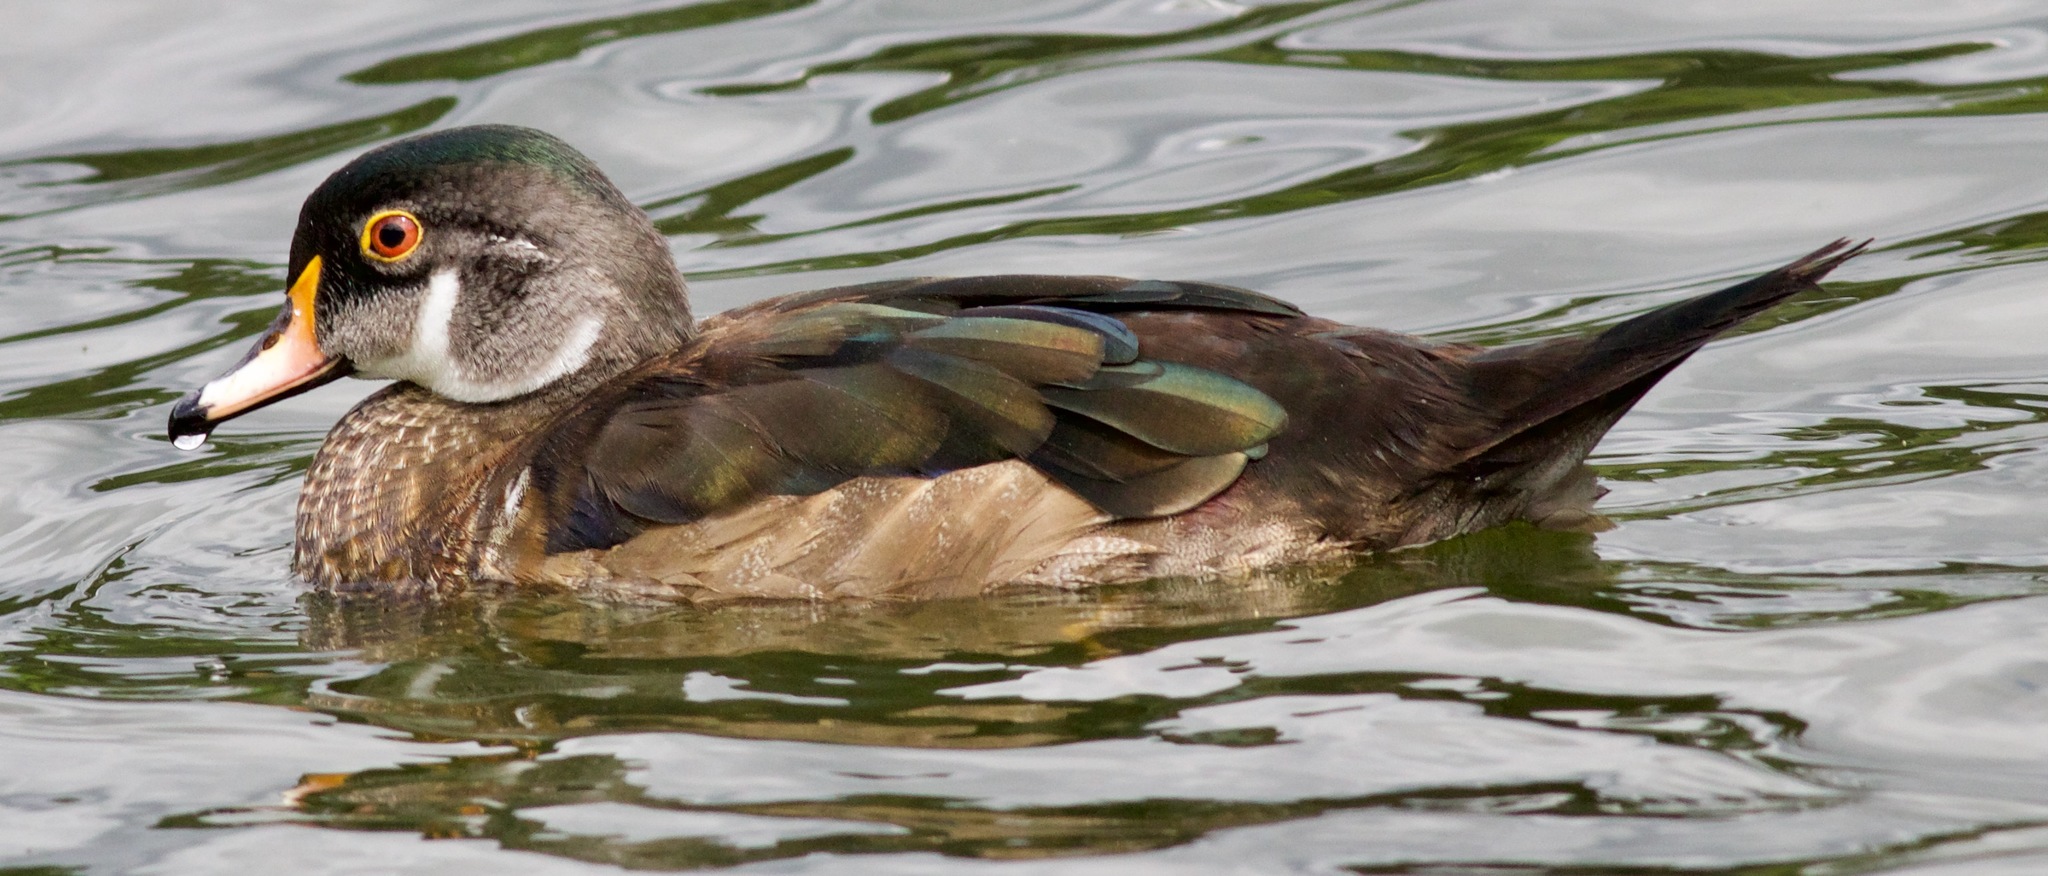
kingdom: Animalia
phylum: Chordata
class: Aves
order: Anseriformes
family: Anatidae
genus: Aix
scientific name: Aix sponsa
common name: Wood duck
